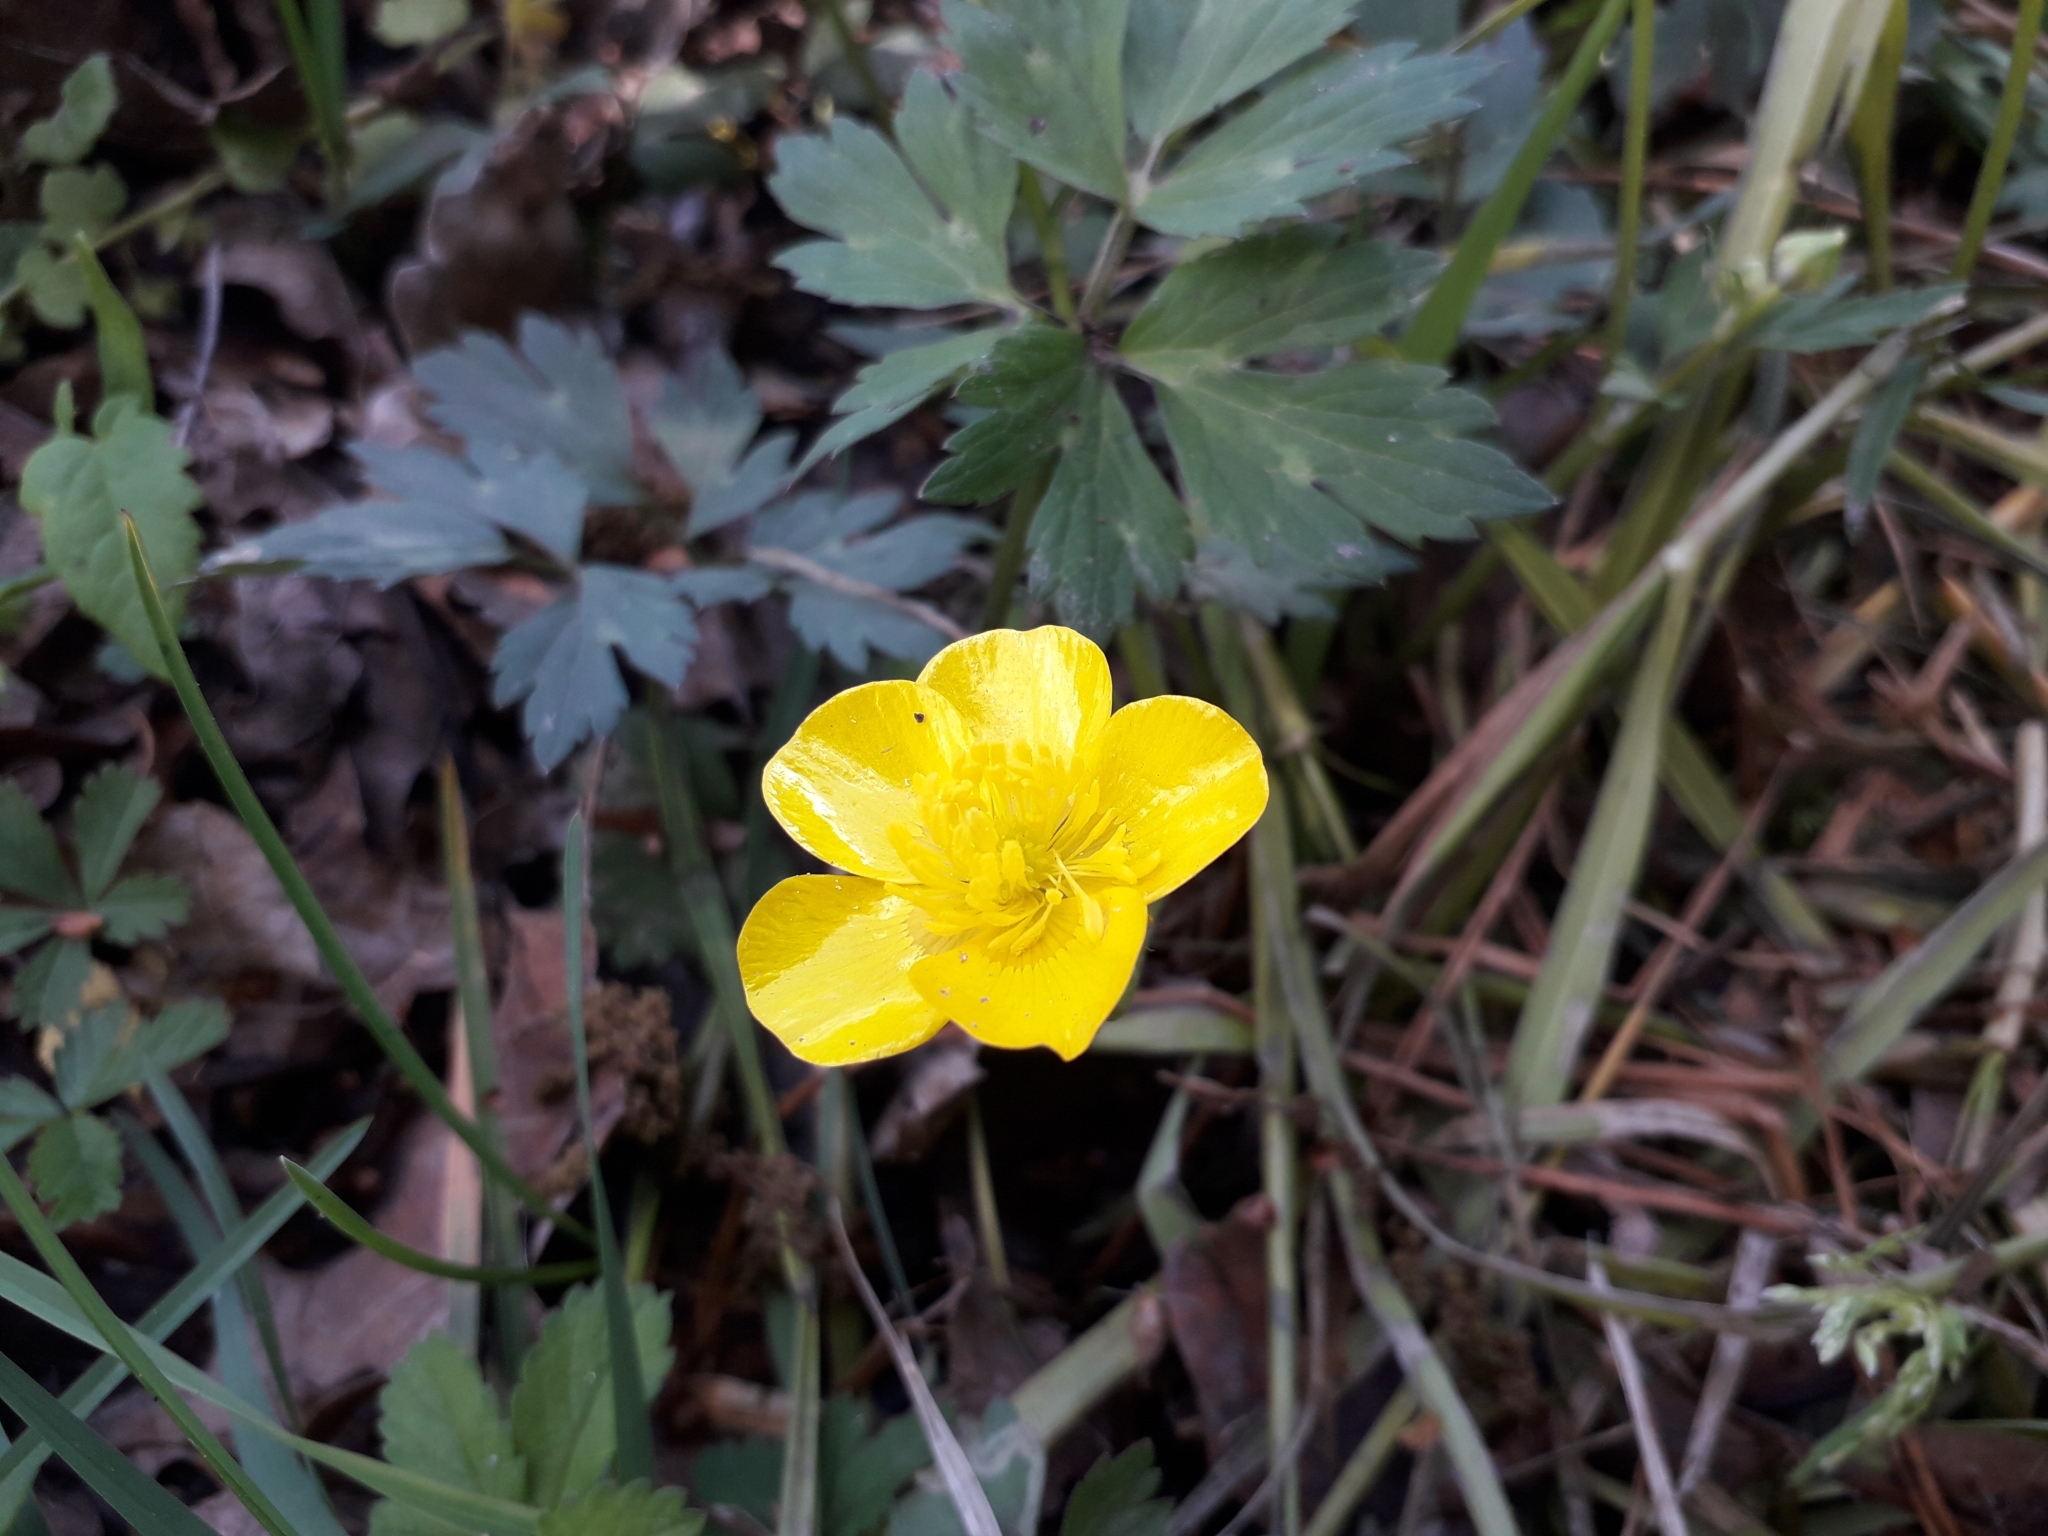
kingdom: Plantae
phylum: Tracheophyta
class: Magnoliopsida
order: Ranunculales
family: Ranunculaceae
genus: Ranunculus
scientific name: Ranunculus repens
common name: Creeping buttercup
